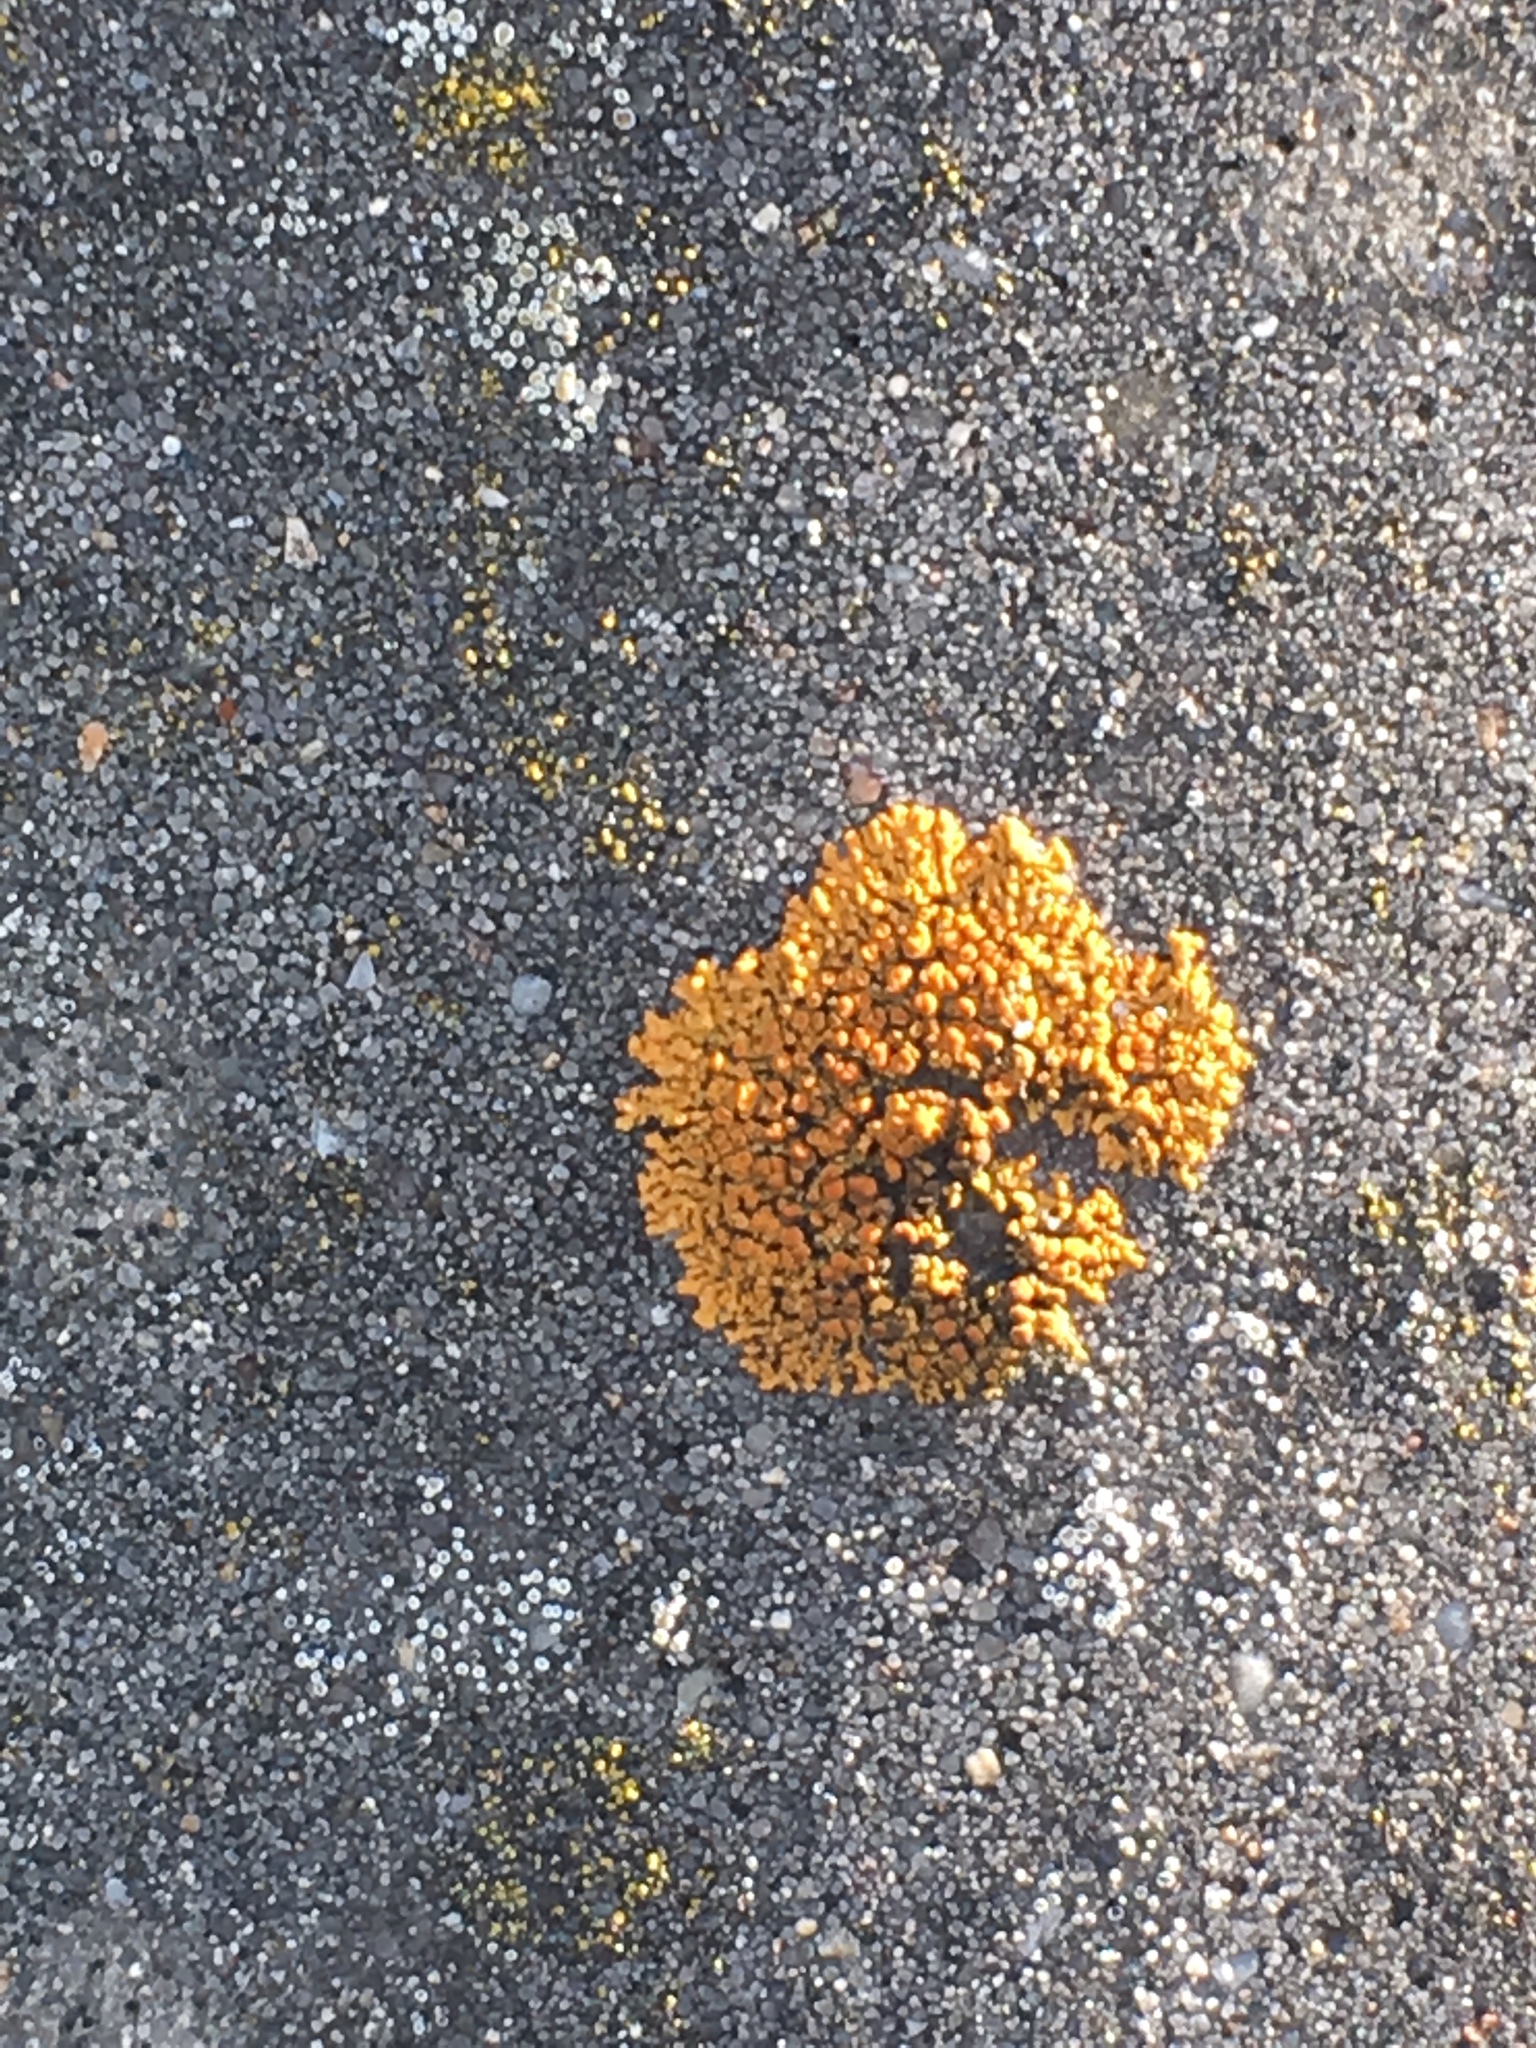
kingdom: Fungi
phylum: Ascomycota
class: Lecanoromycetes
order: Teloschistales
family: Teloschistaceae
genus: Xanthoria
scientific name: Xanthoria elegans
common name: Elegant sunburst lichen
